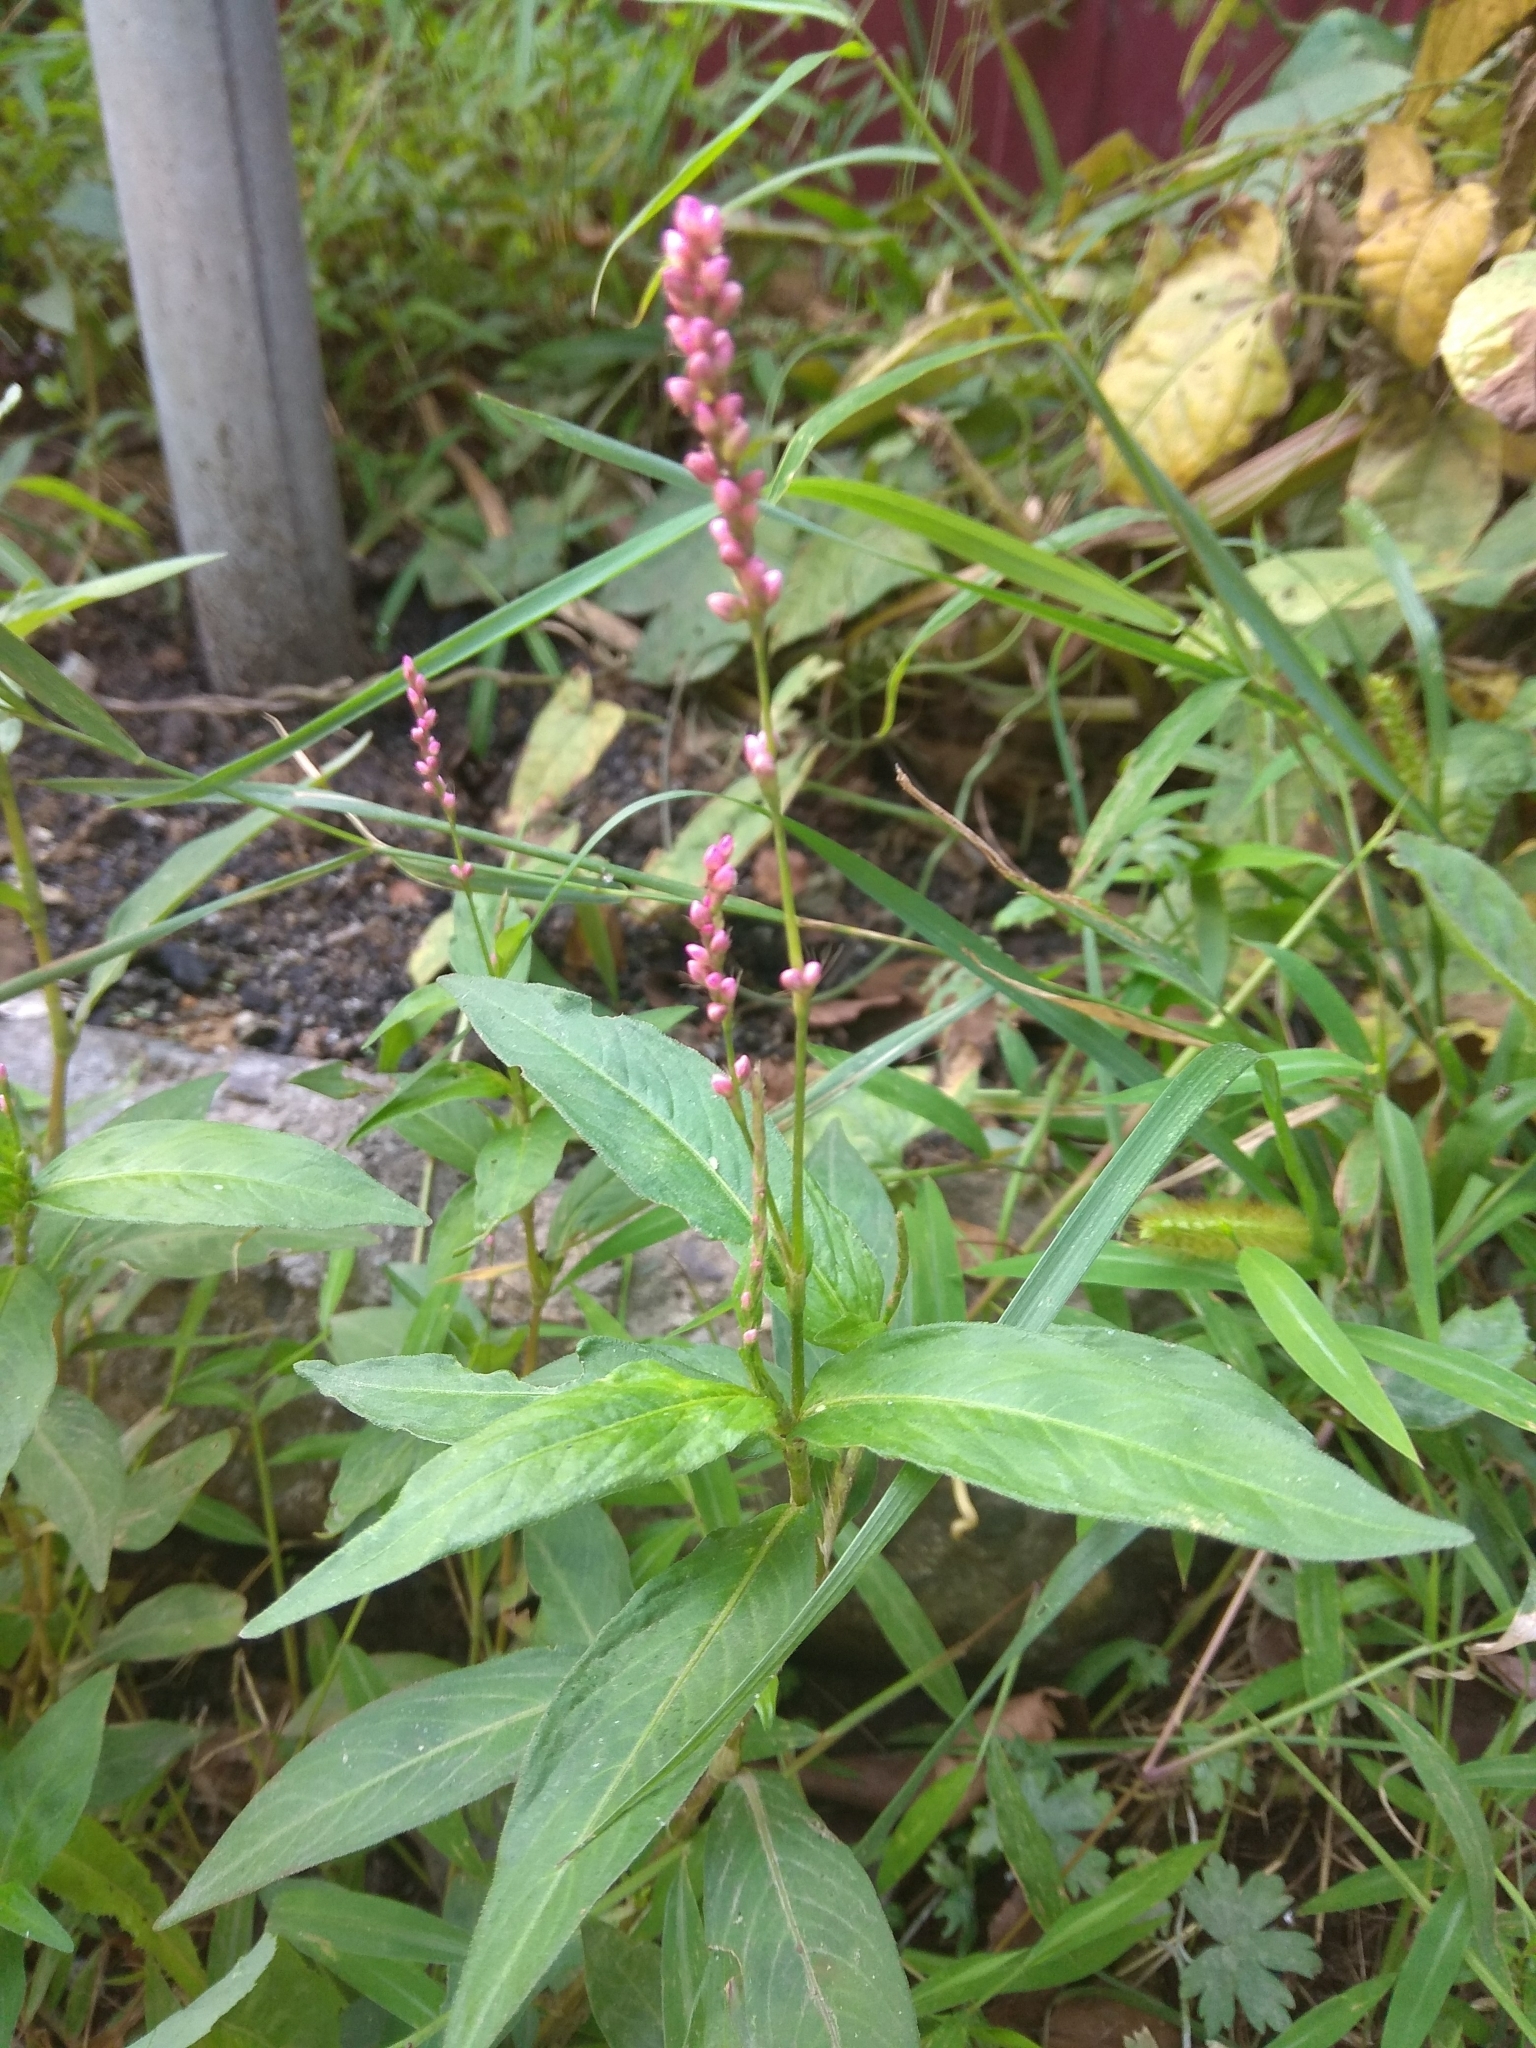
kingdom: Plantae
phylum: Tracheophyta
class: Magnoliopsida
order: Caryophyllales
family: Polygonaceae
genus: Persicaria
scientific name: Persicaria longiseta
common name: Bristly lady's-thumb
